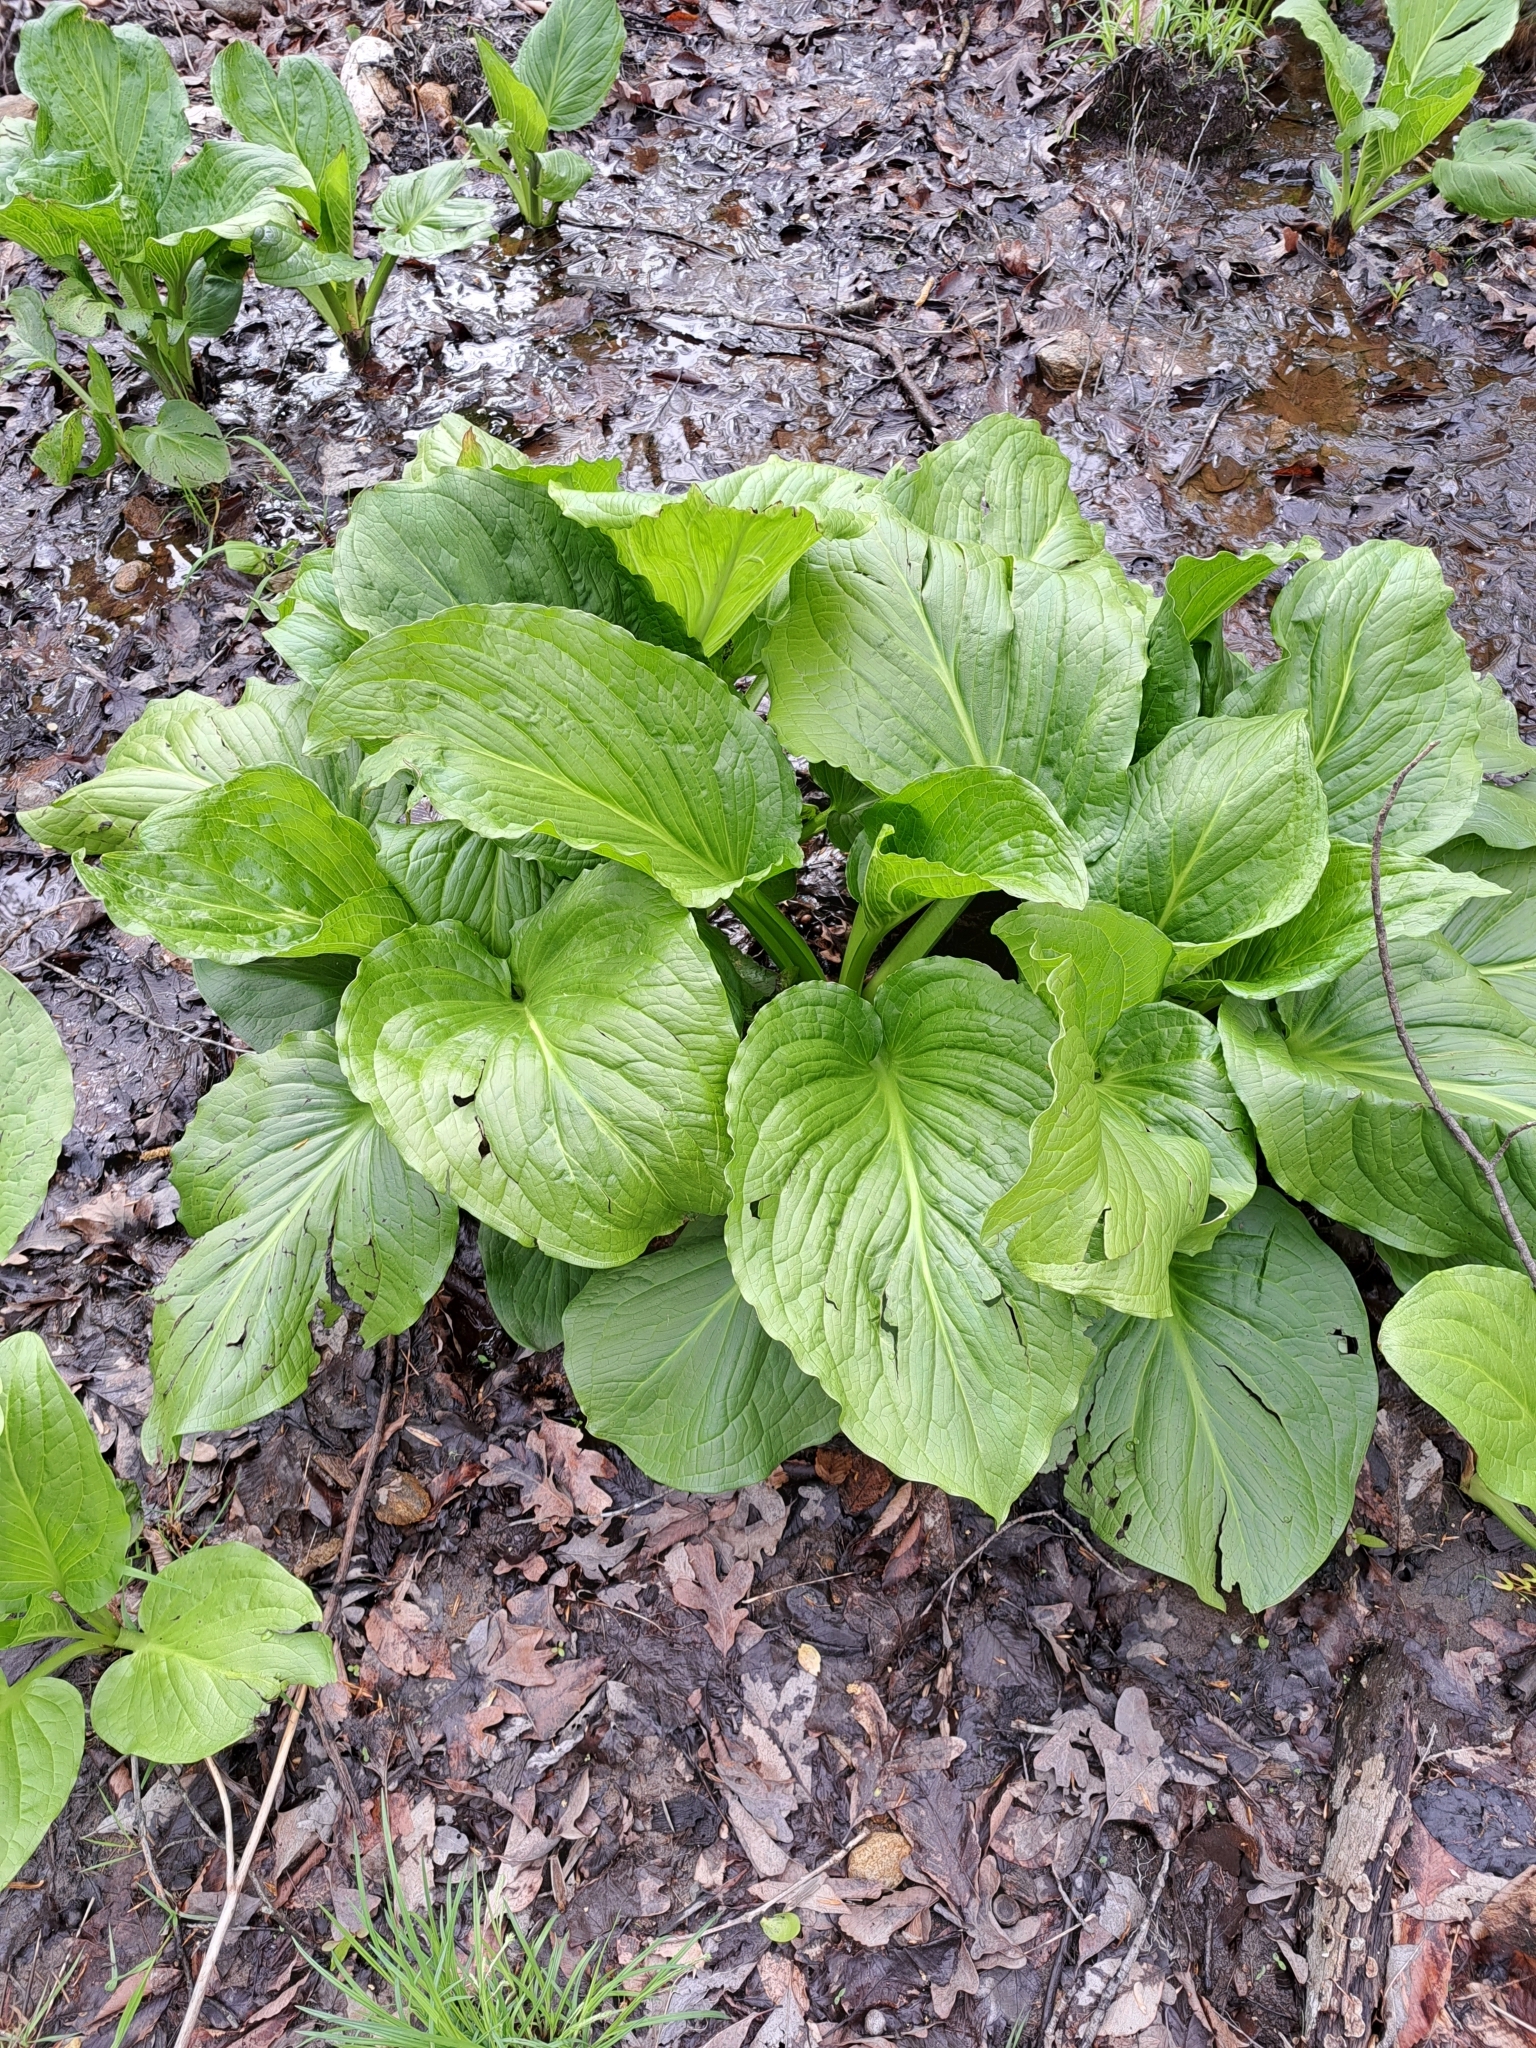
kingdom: Plantae
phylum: Tracheophyta
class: Liliopsida
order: Alismatales
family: Araceae
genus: Symplocarpus
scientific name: Symplocarpus foetidus
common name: Eastern skunk cabbage
